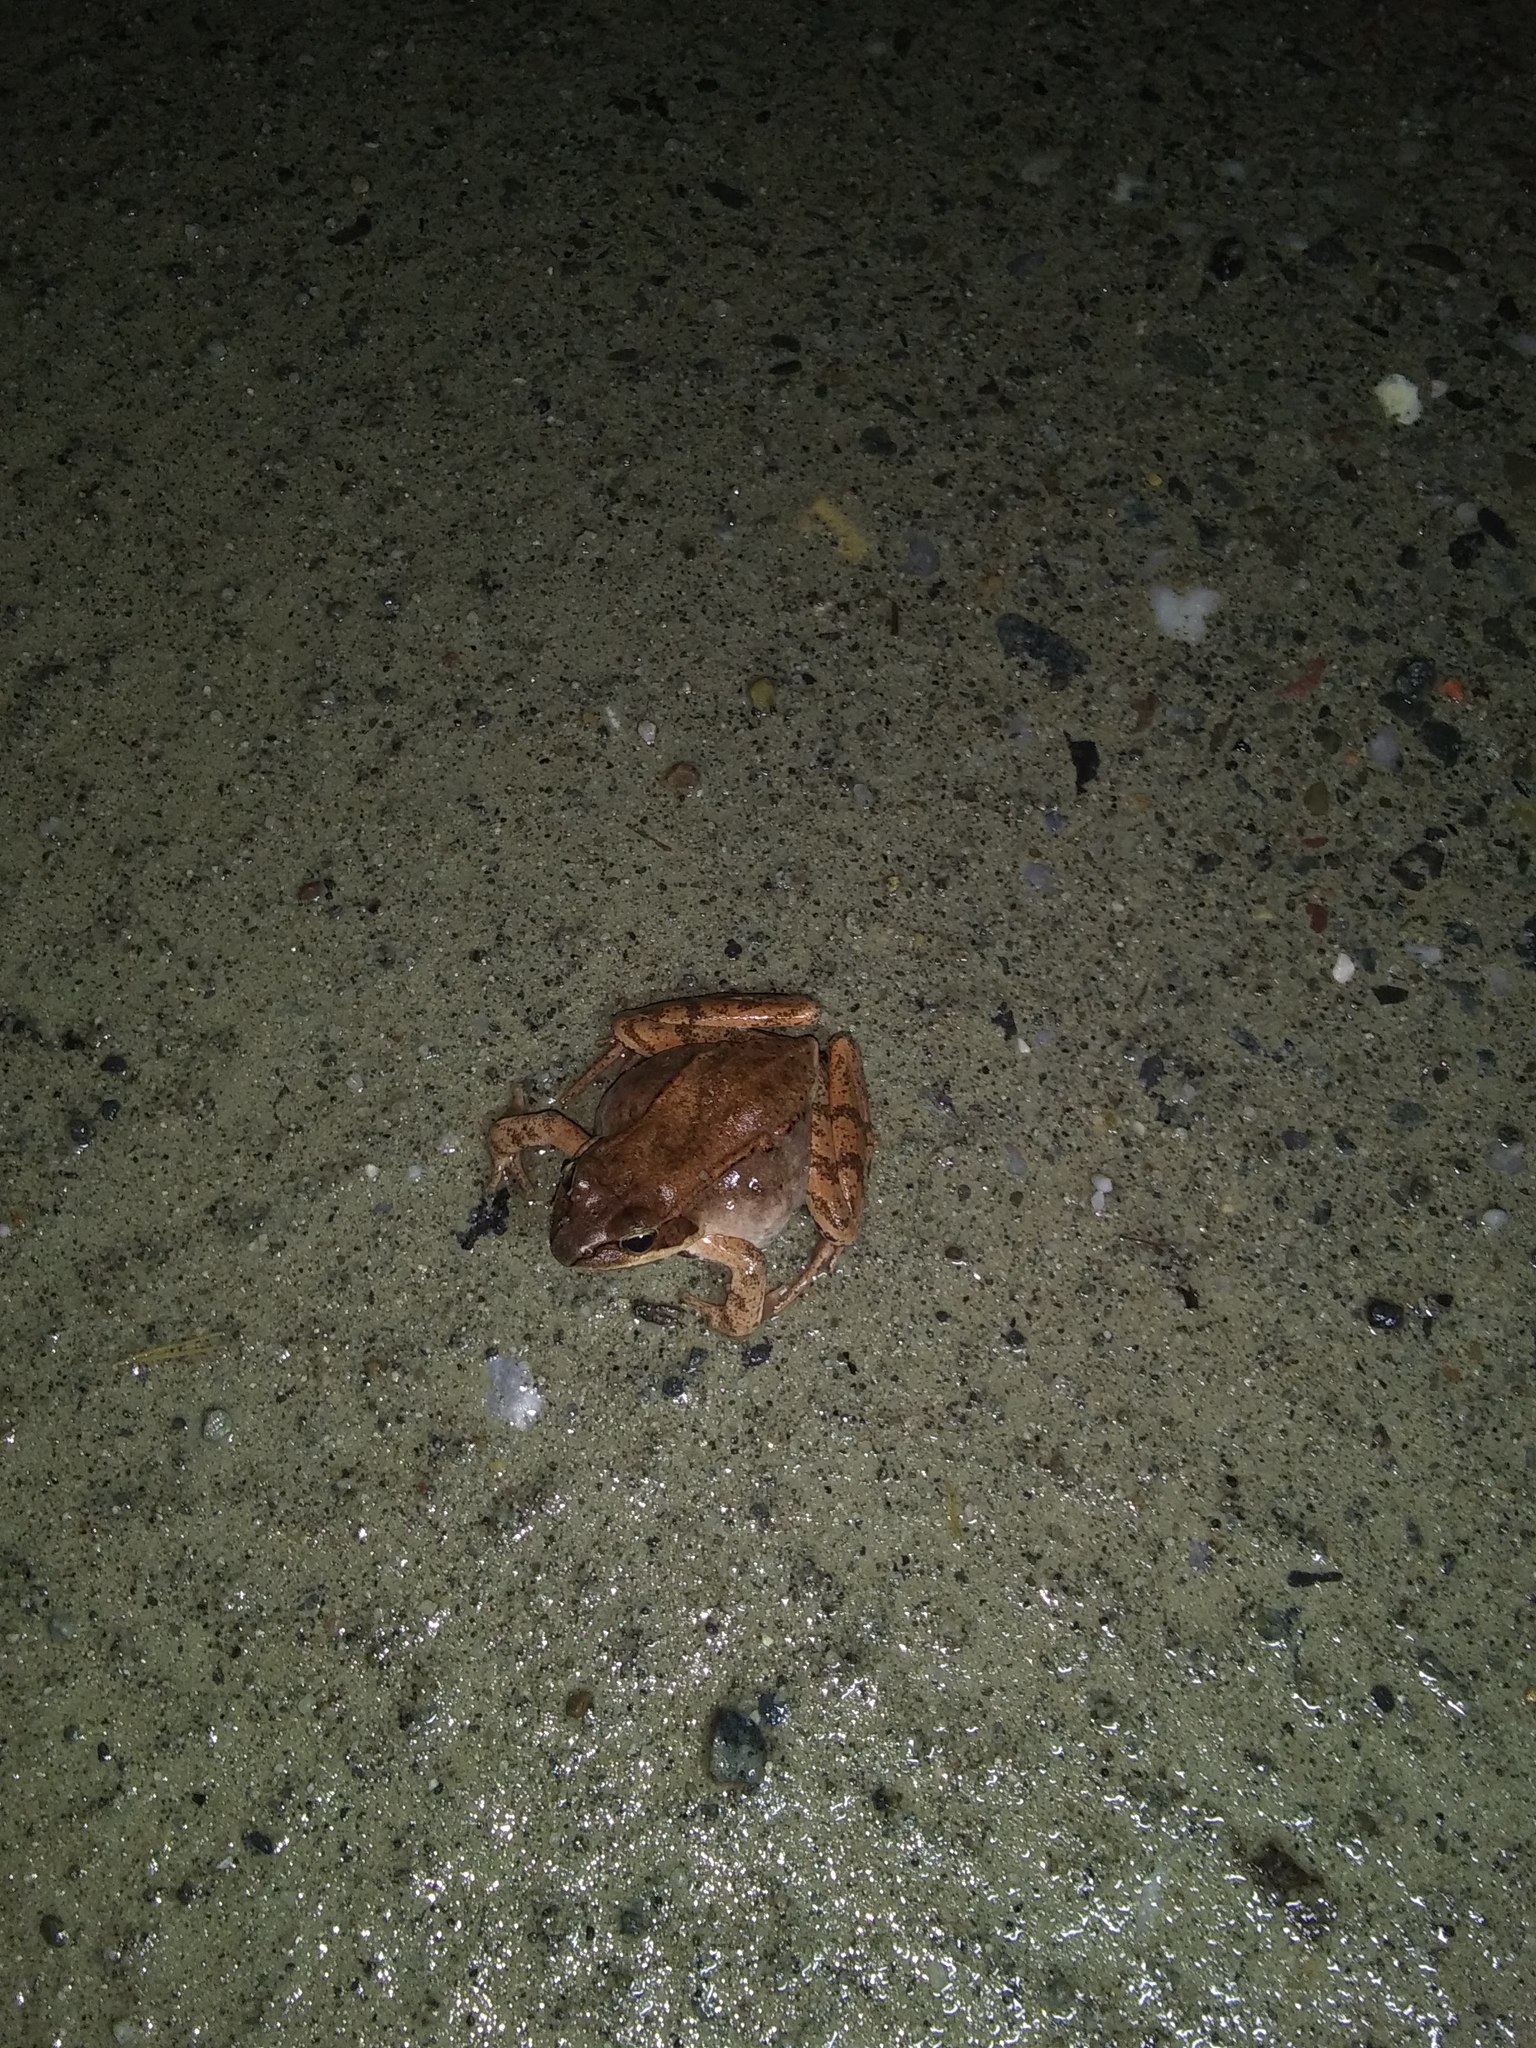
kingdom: Animalia
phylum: Chordata
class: Amphibia
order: Anura
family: Ranidae
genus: Lithobates
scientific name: Lithobates sylvaticus
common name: Wood frog
